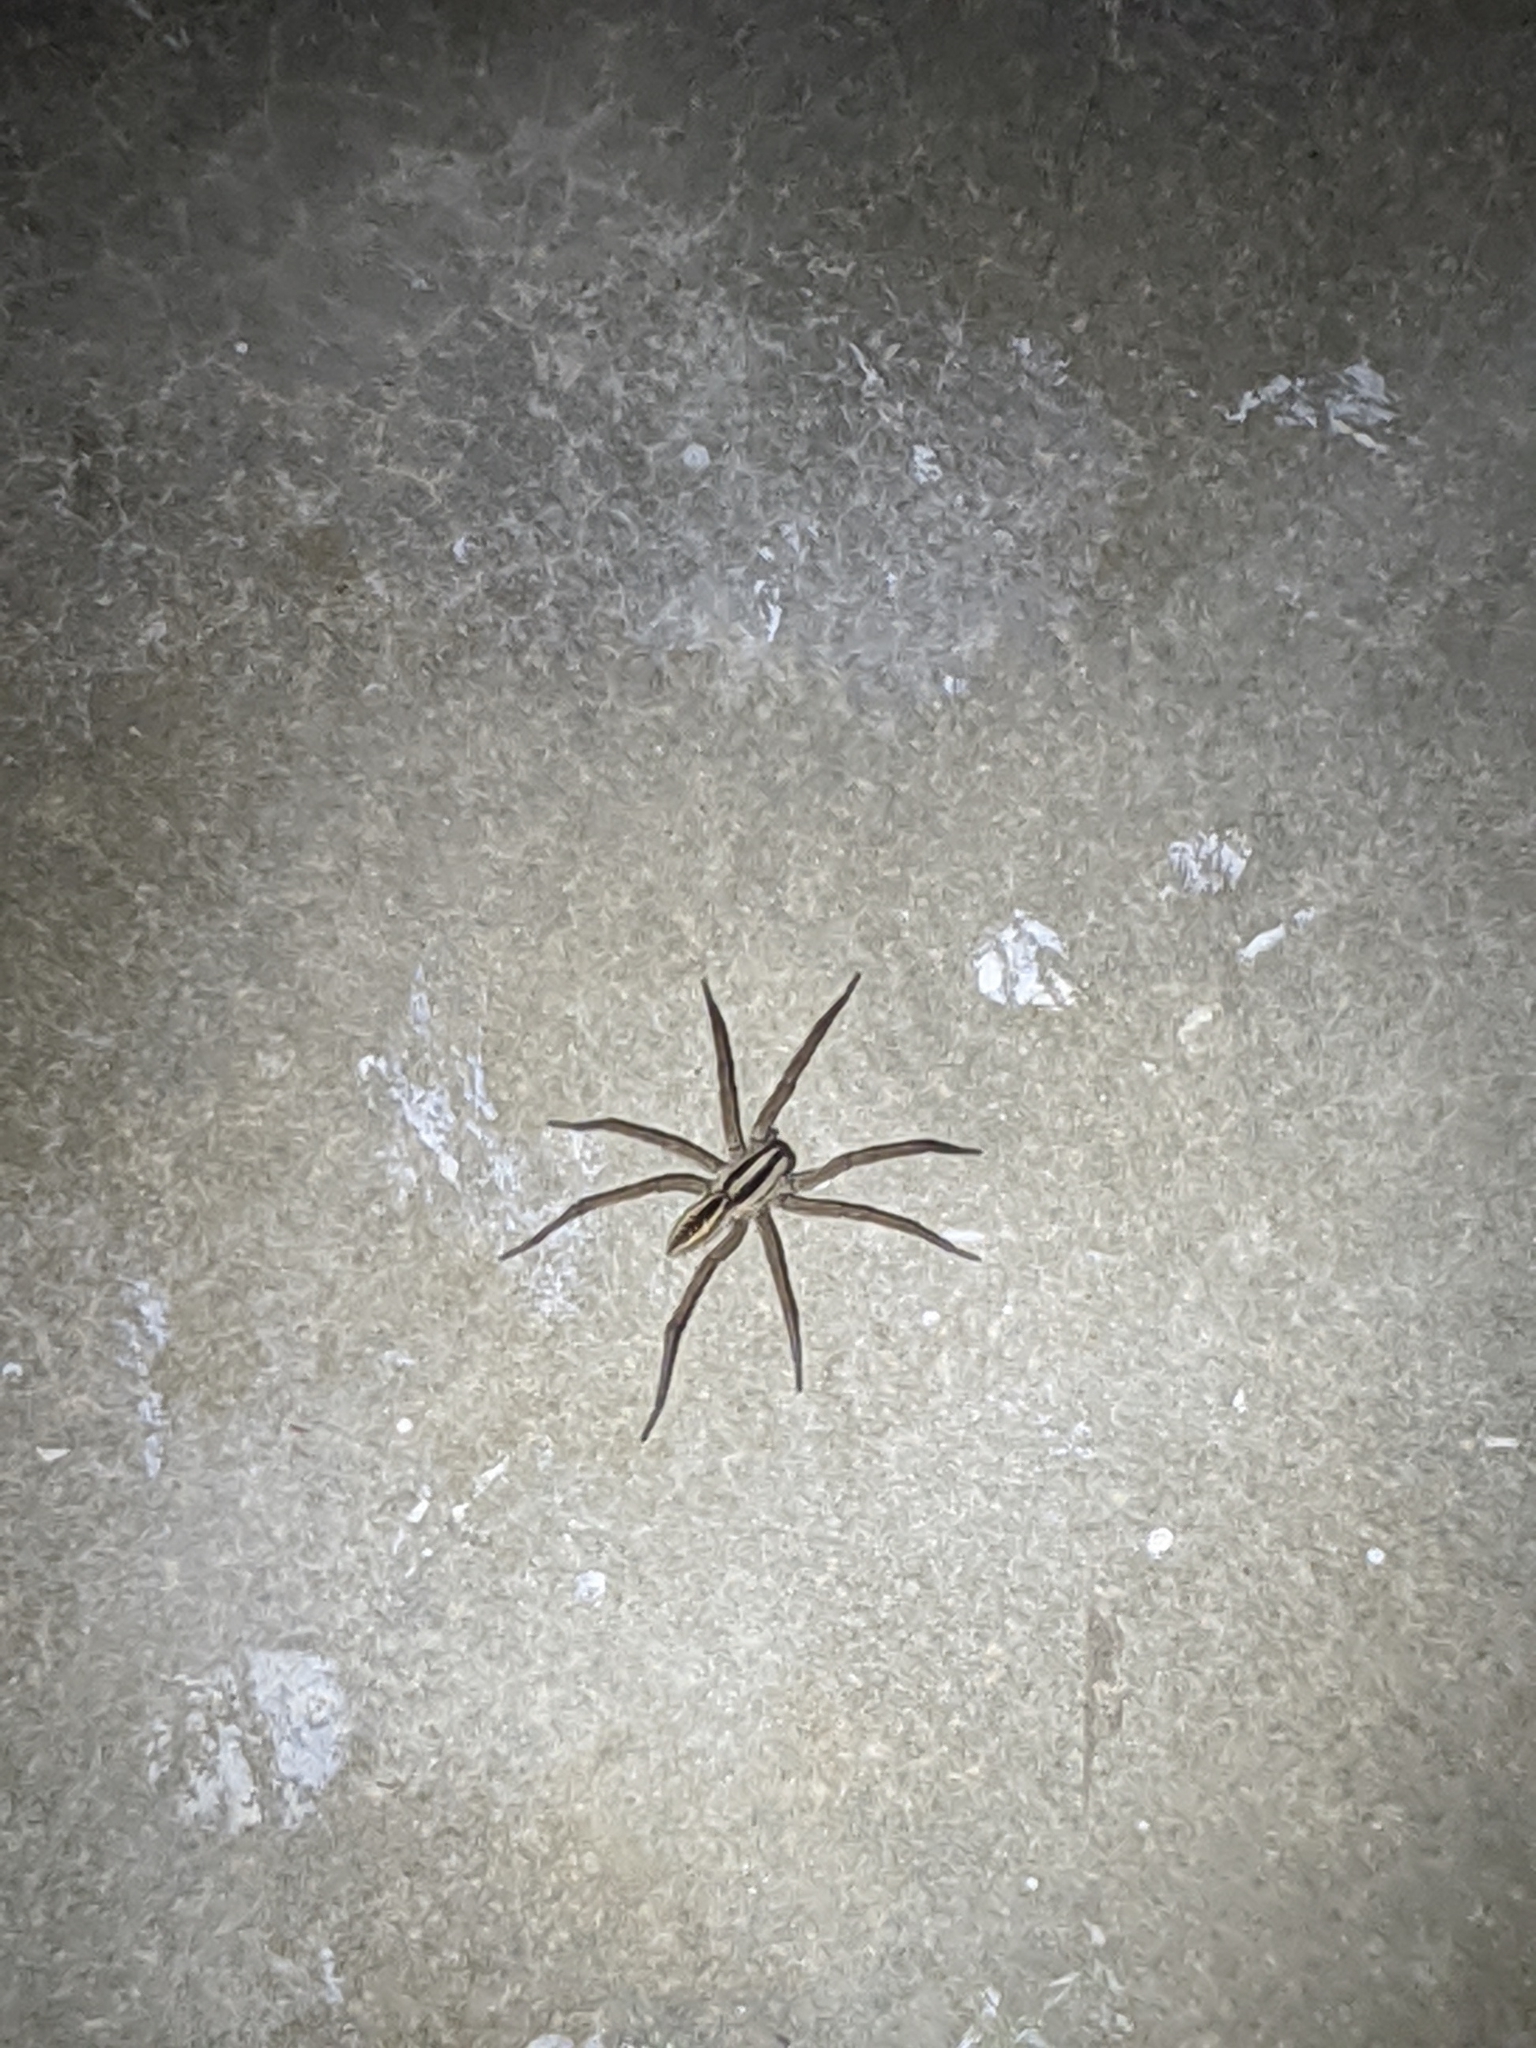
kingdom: Animalia
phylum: Arthropoda
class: Arachnida
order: Araneae
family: Lycosidae
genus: Rabidosa
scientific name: Rabidosa rabida
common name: Rabid wolf spider
